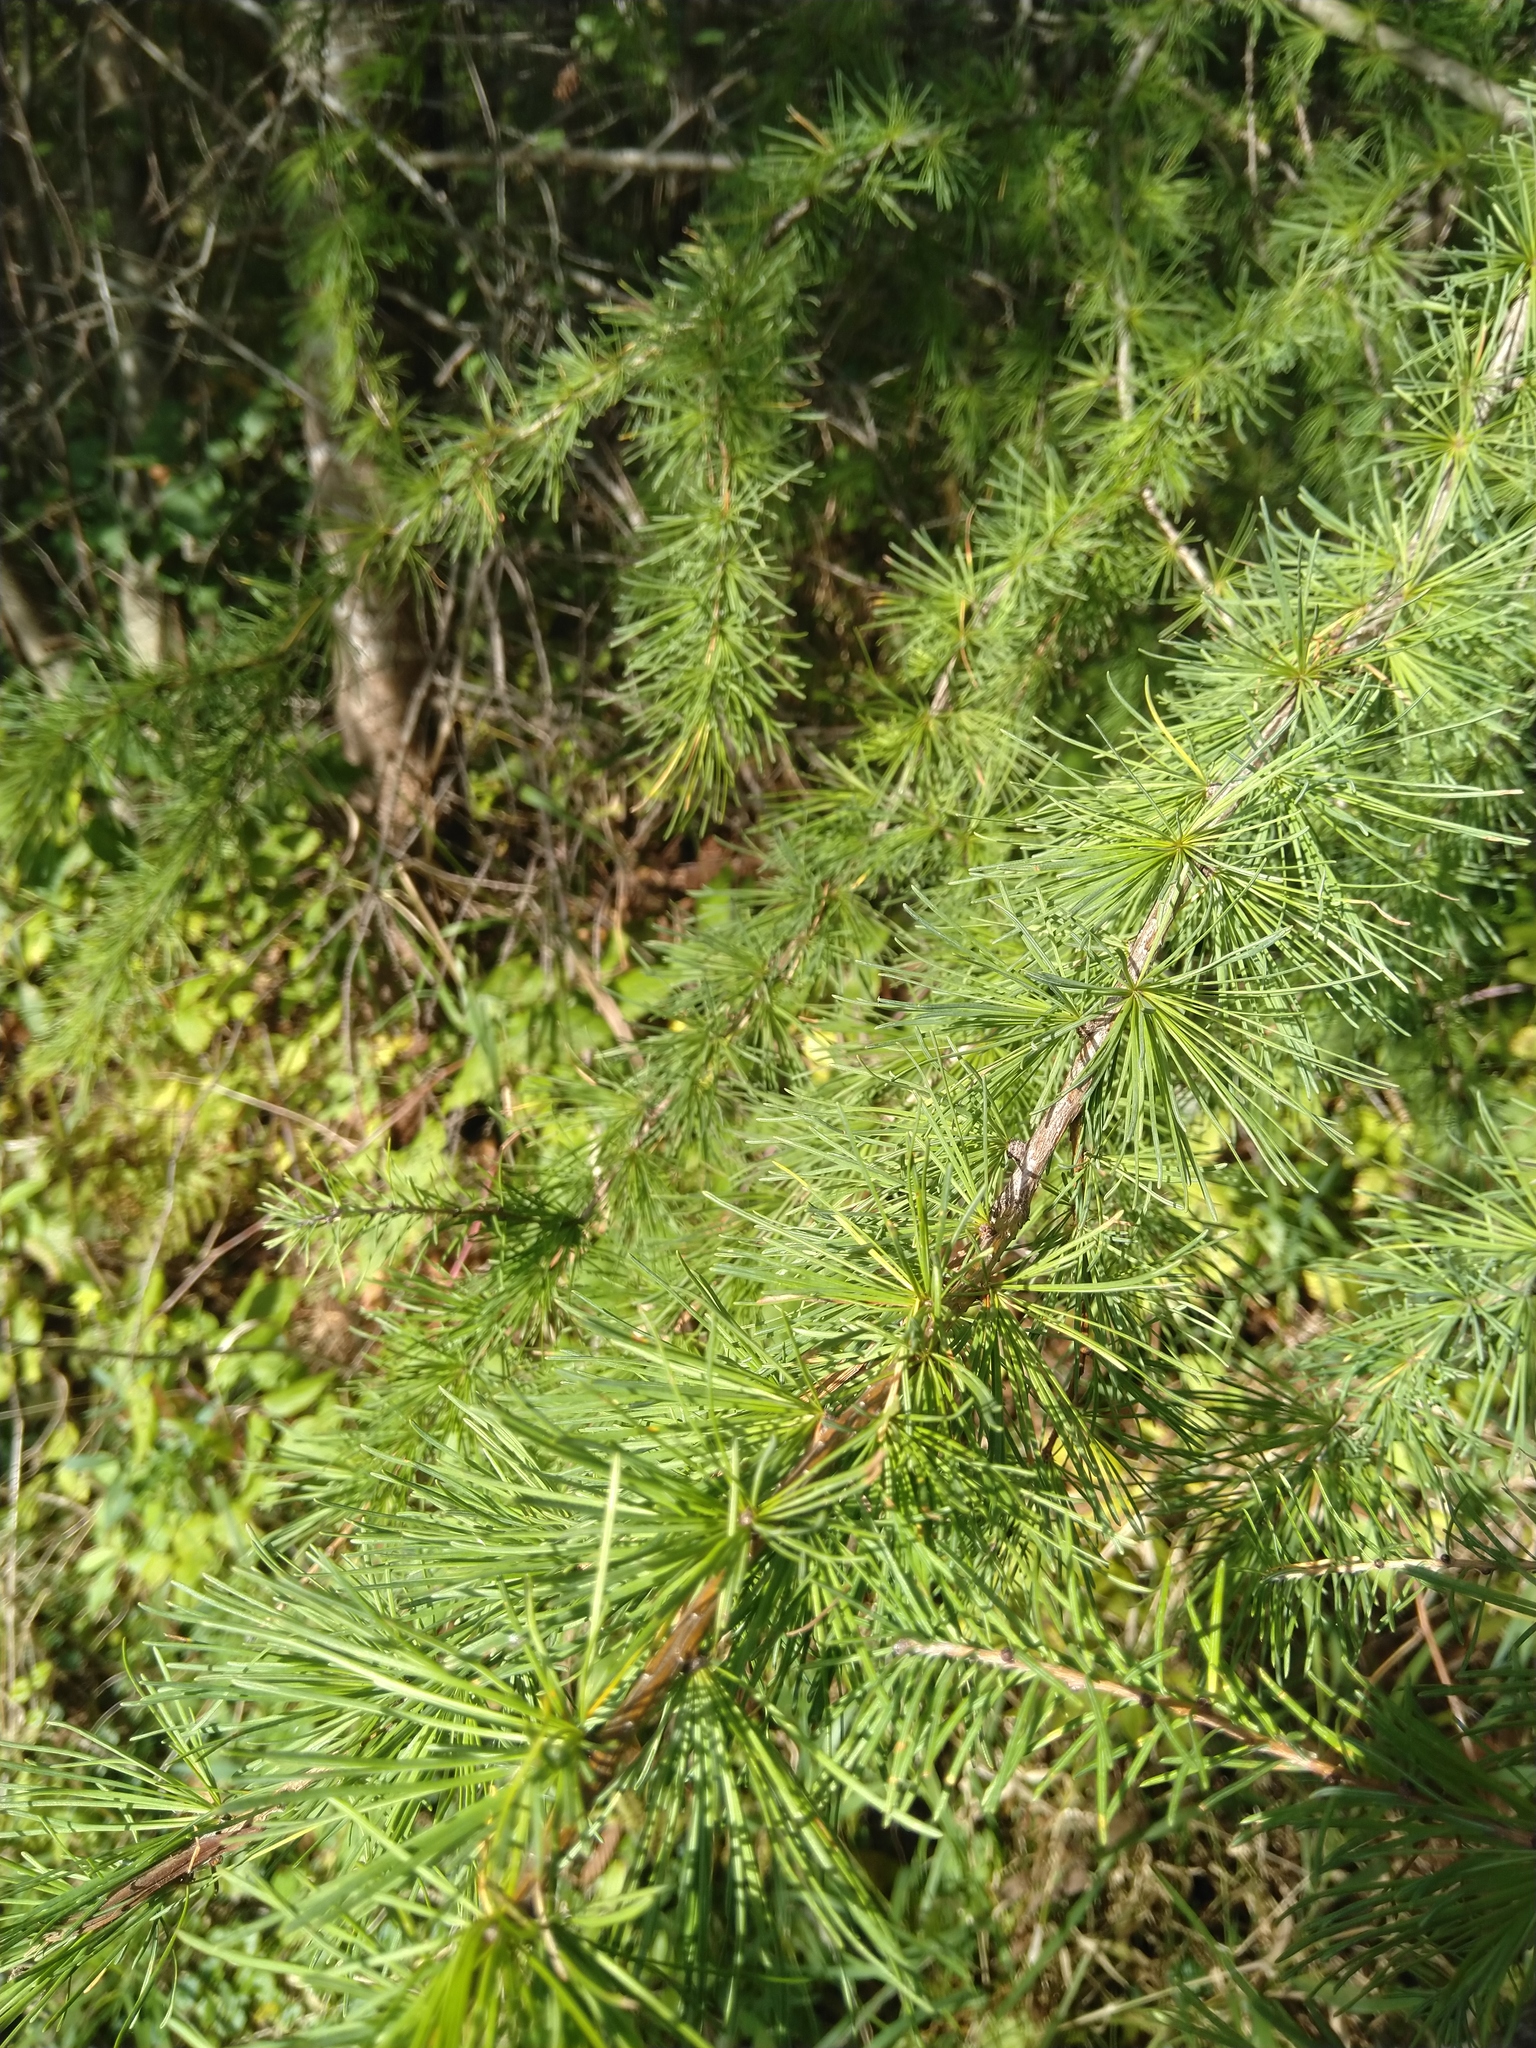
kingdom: Plantae
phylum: Tracheophyta
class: Pinopsida
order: Pinales
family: Pinaceae
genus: Larix
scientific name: Larix laricina
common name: American larch
